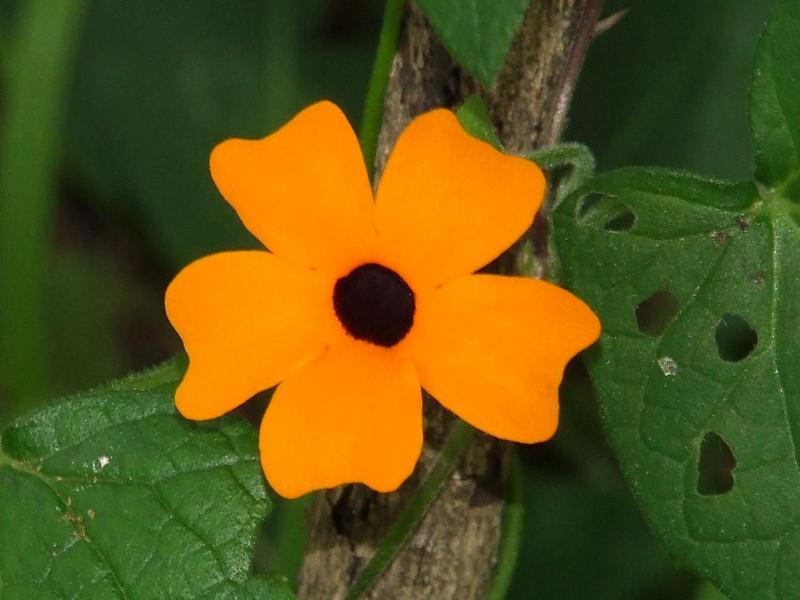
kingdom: Plantae
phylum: Tracheophyta
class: Magnoliopsida
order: Lamiales
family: Acanthaceae
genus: Thunbergia
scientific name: Thunbergia alata
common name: Blackeyed susan vine
